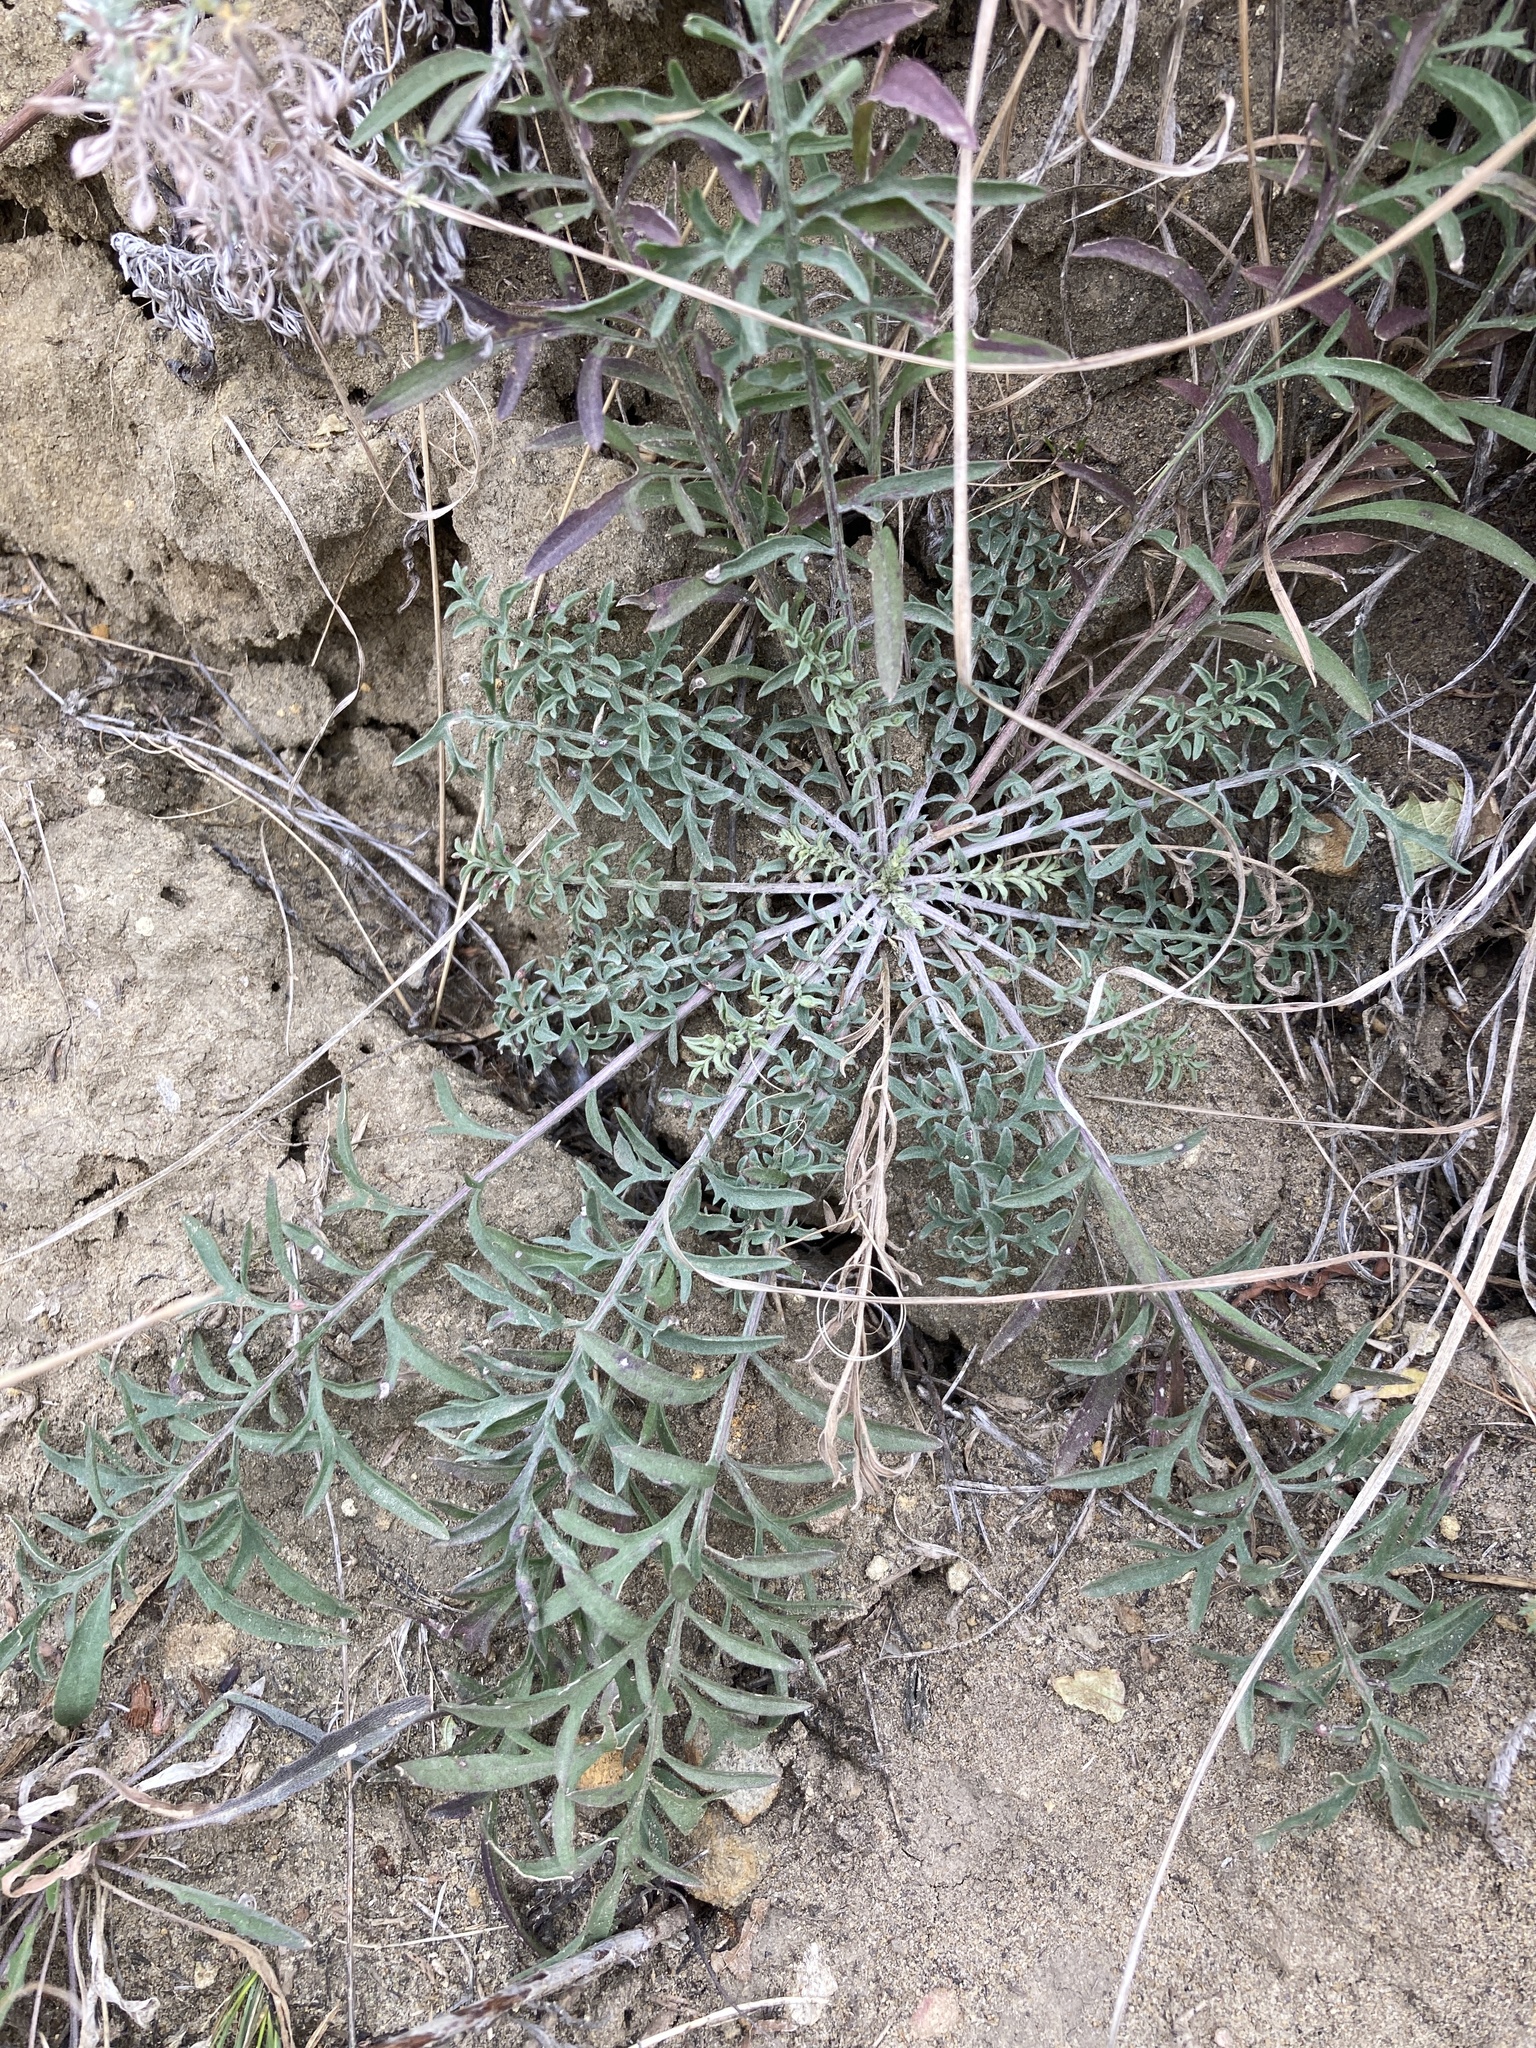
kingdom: Plantae
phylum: Tracheophyta
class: Magnoliopsida
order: Asterales
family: Asteraceae
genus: Centaurea
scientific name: Centaurea stoebe
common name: Spotted knapweed
